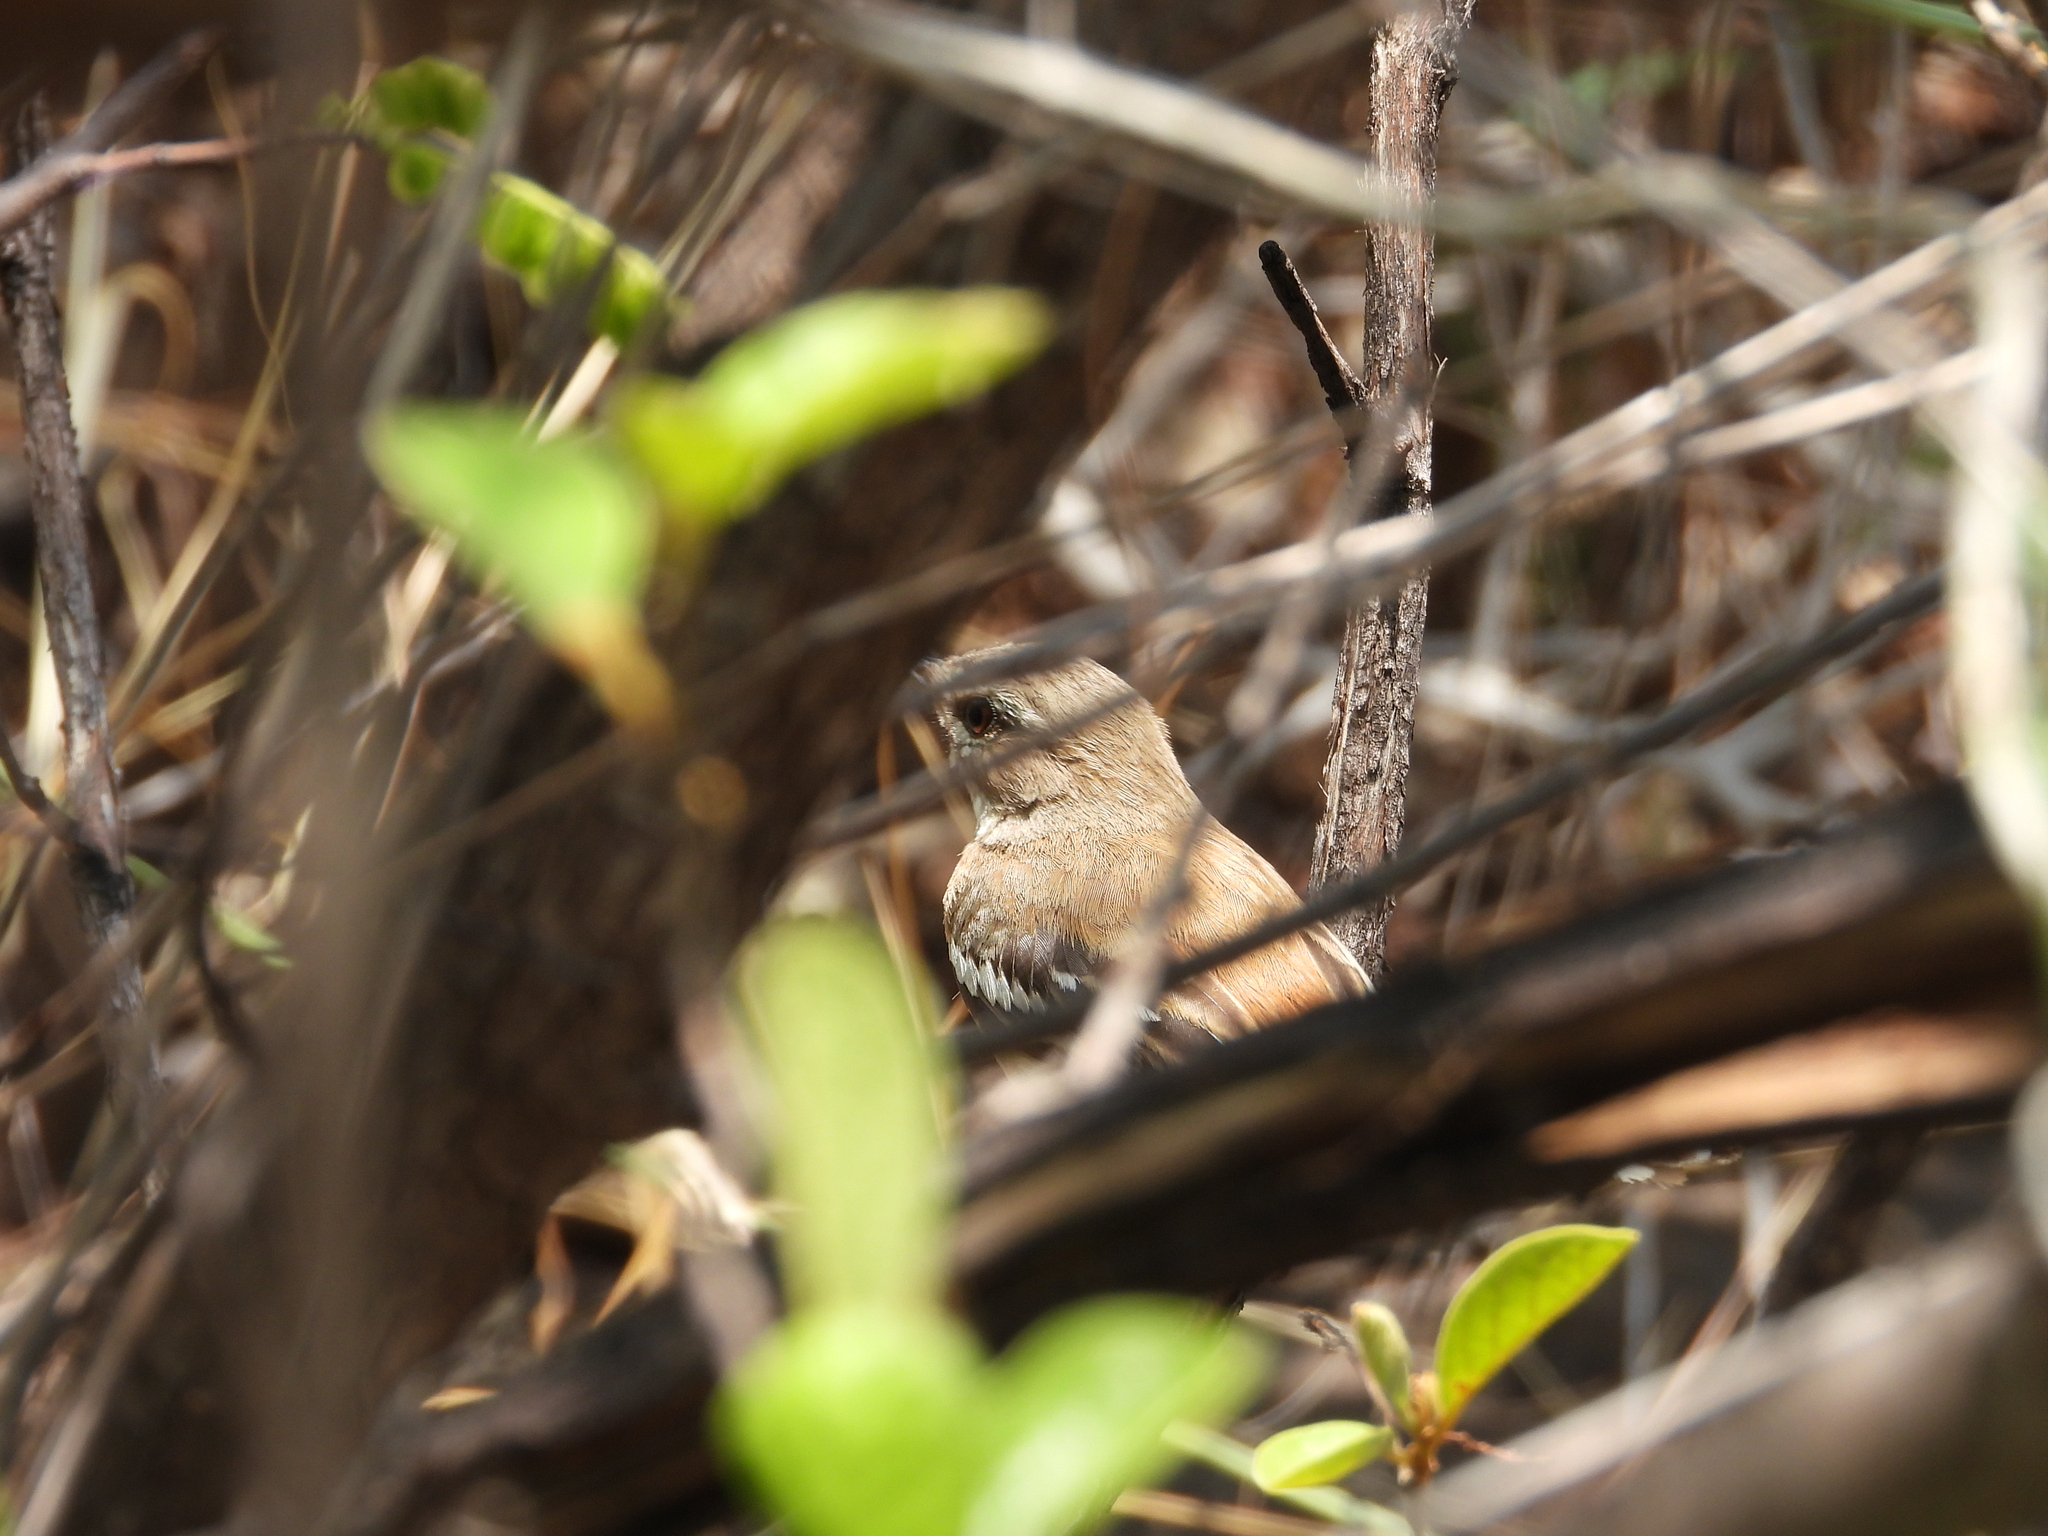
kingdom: Animalia
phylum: Chordata
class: Aves
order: Passeriformes
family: Muscicapidae
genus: Erythropygia
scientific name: Erythropygia leucophrys
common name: White-browed scrub robin
